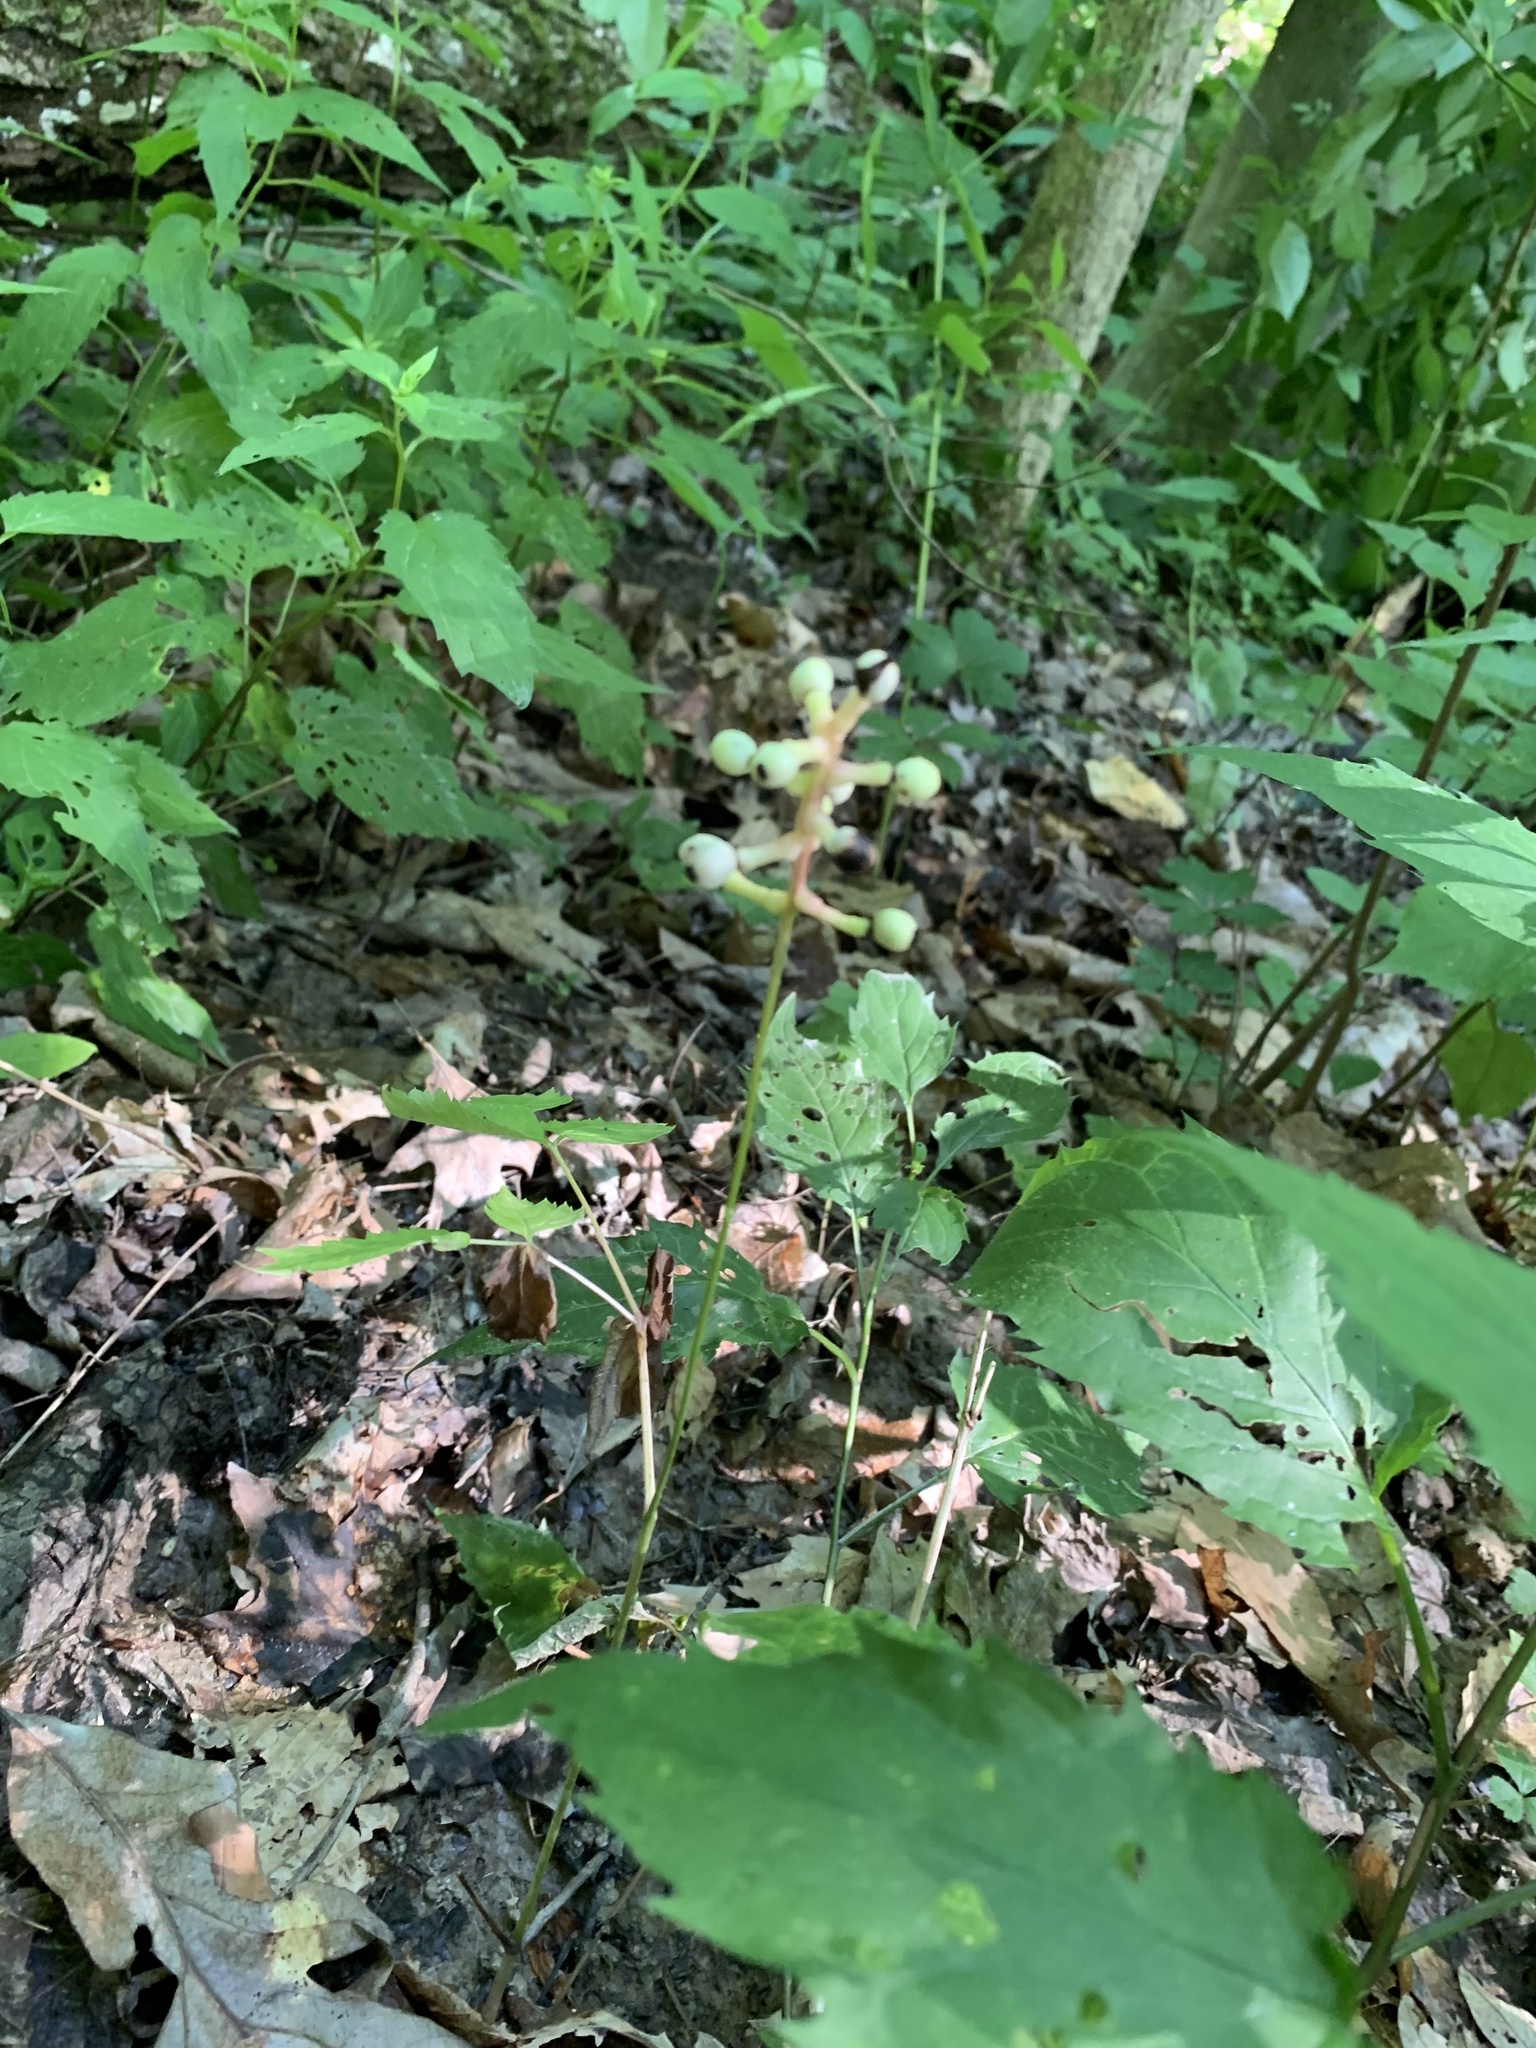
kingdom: Plantae
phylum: Tracheophyta
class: Magnoliopsida
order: Ranunculales
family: Ranunculaceae
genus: Actaea
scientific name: Actaea pachypoda
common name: Doll's-eyes
